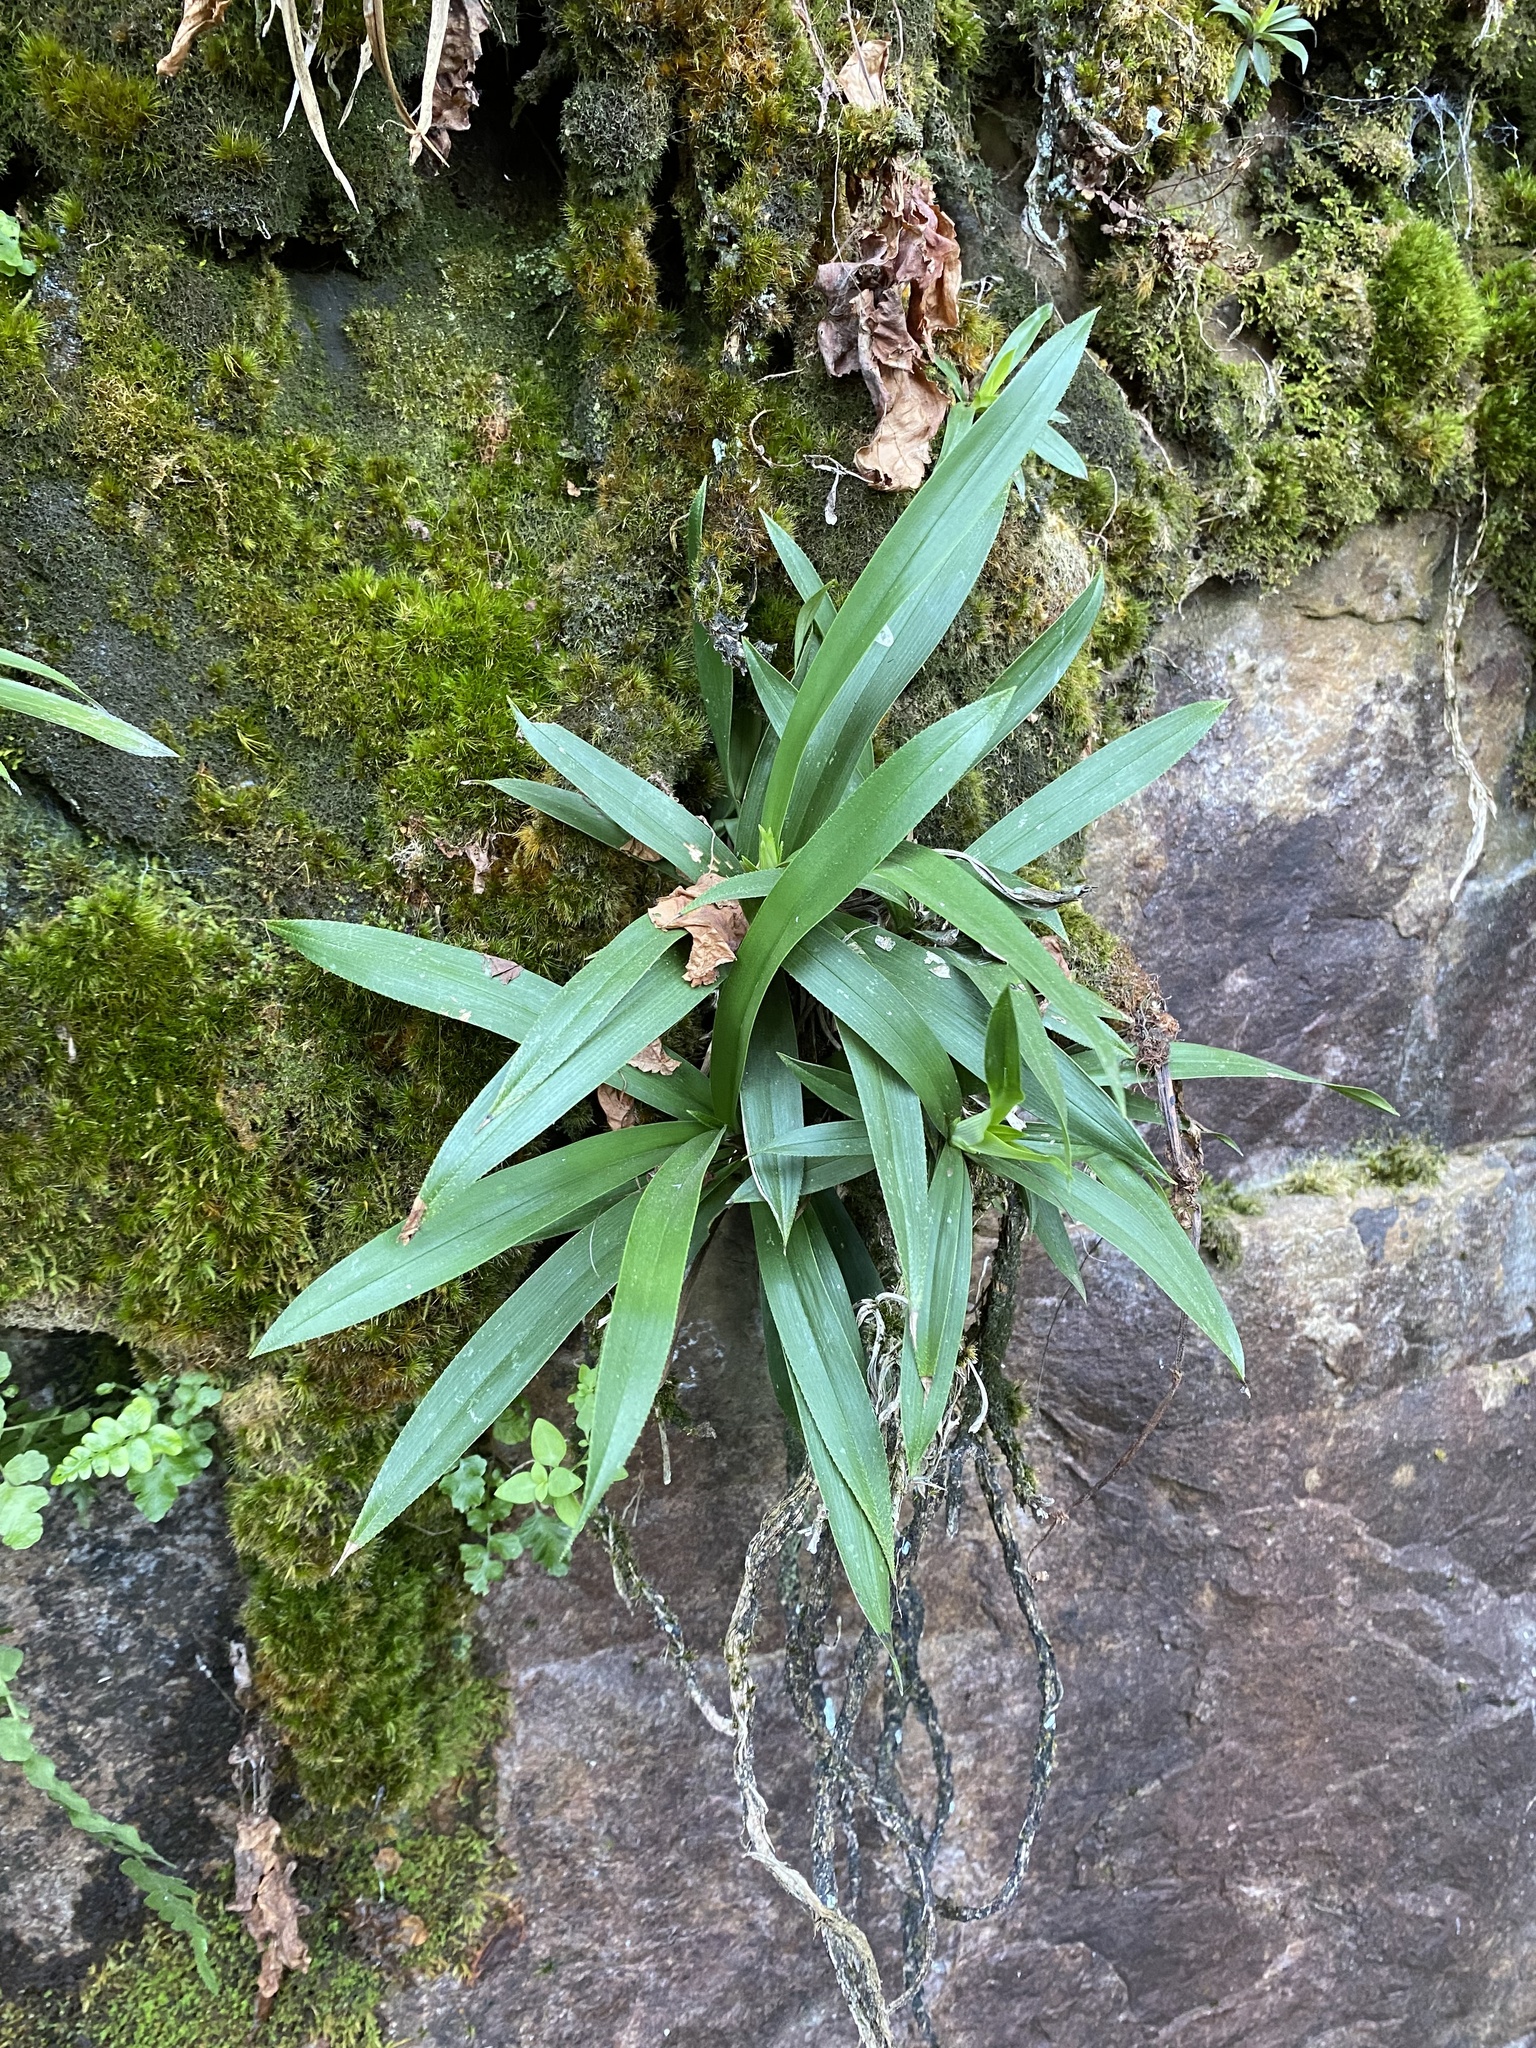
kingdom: Plantae
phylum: Tracheophyta
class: Liliopsida
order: Pandanales
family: Velloziaceae
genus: Xerophyta
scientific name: Xerophyta elegans
